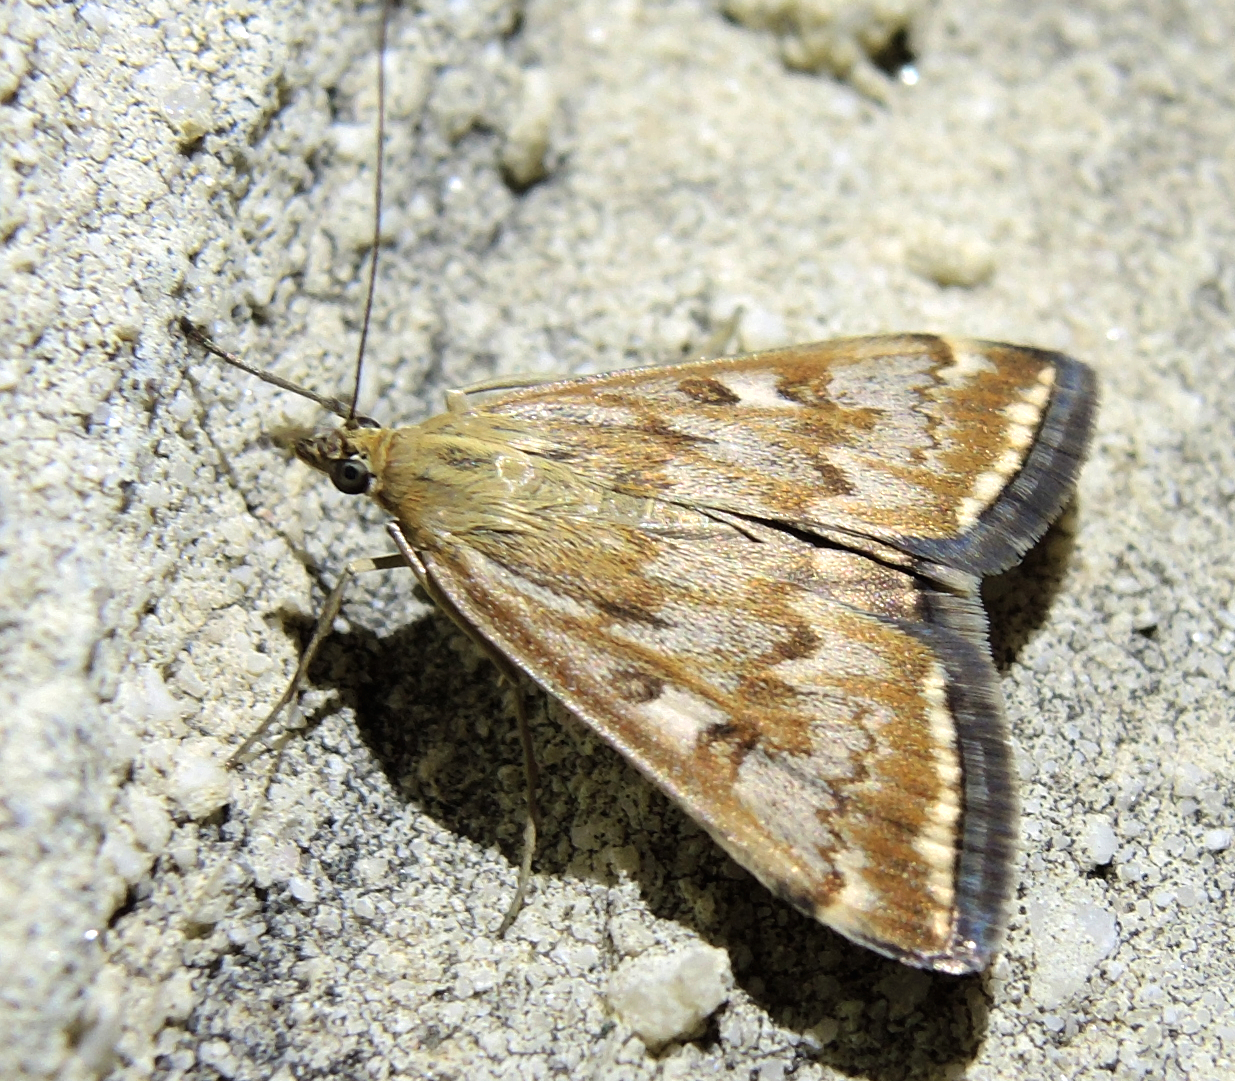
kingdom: Animalia
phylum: Arthropoda
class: Insecta
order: Lepidoptera
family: Crambidae
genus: Loxostege
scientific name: Loxostege sticticalis
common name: Crambid moth
